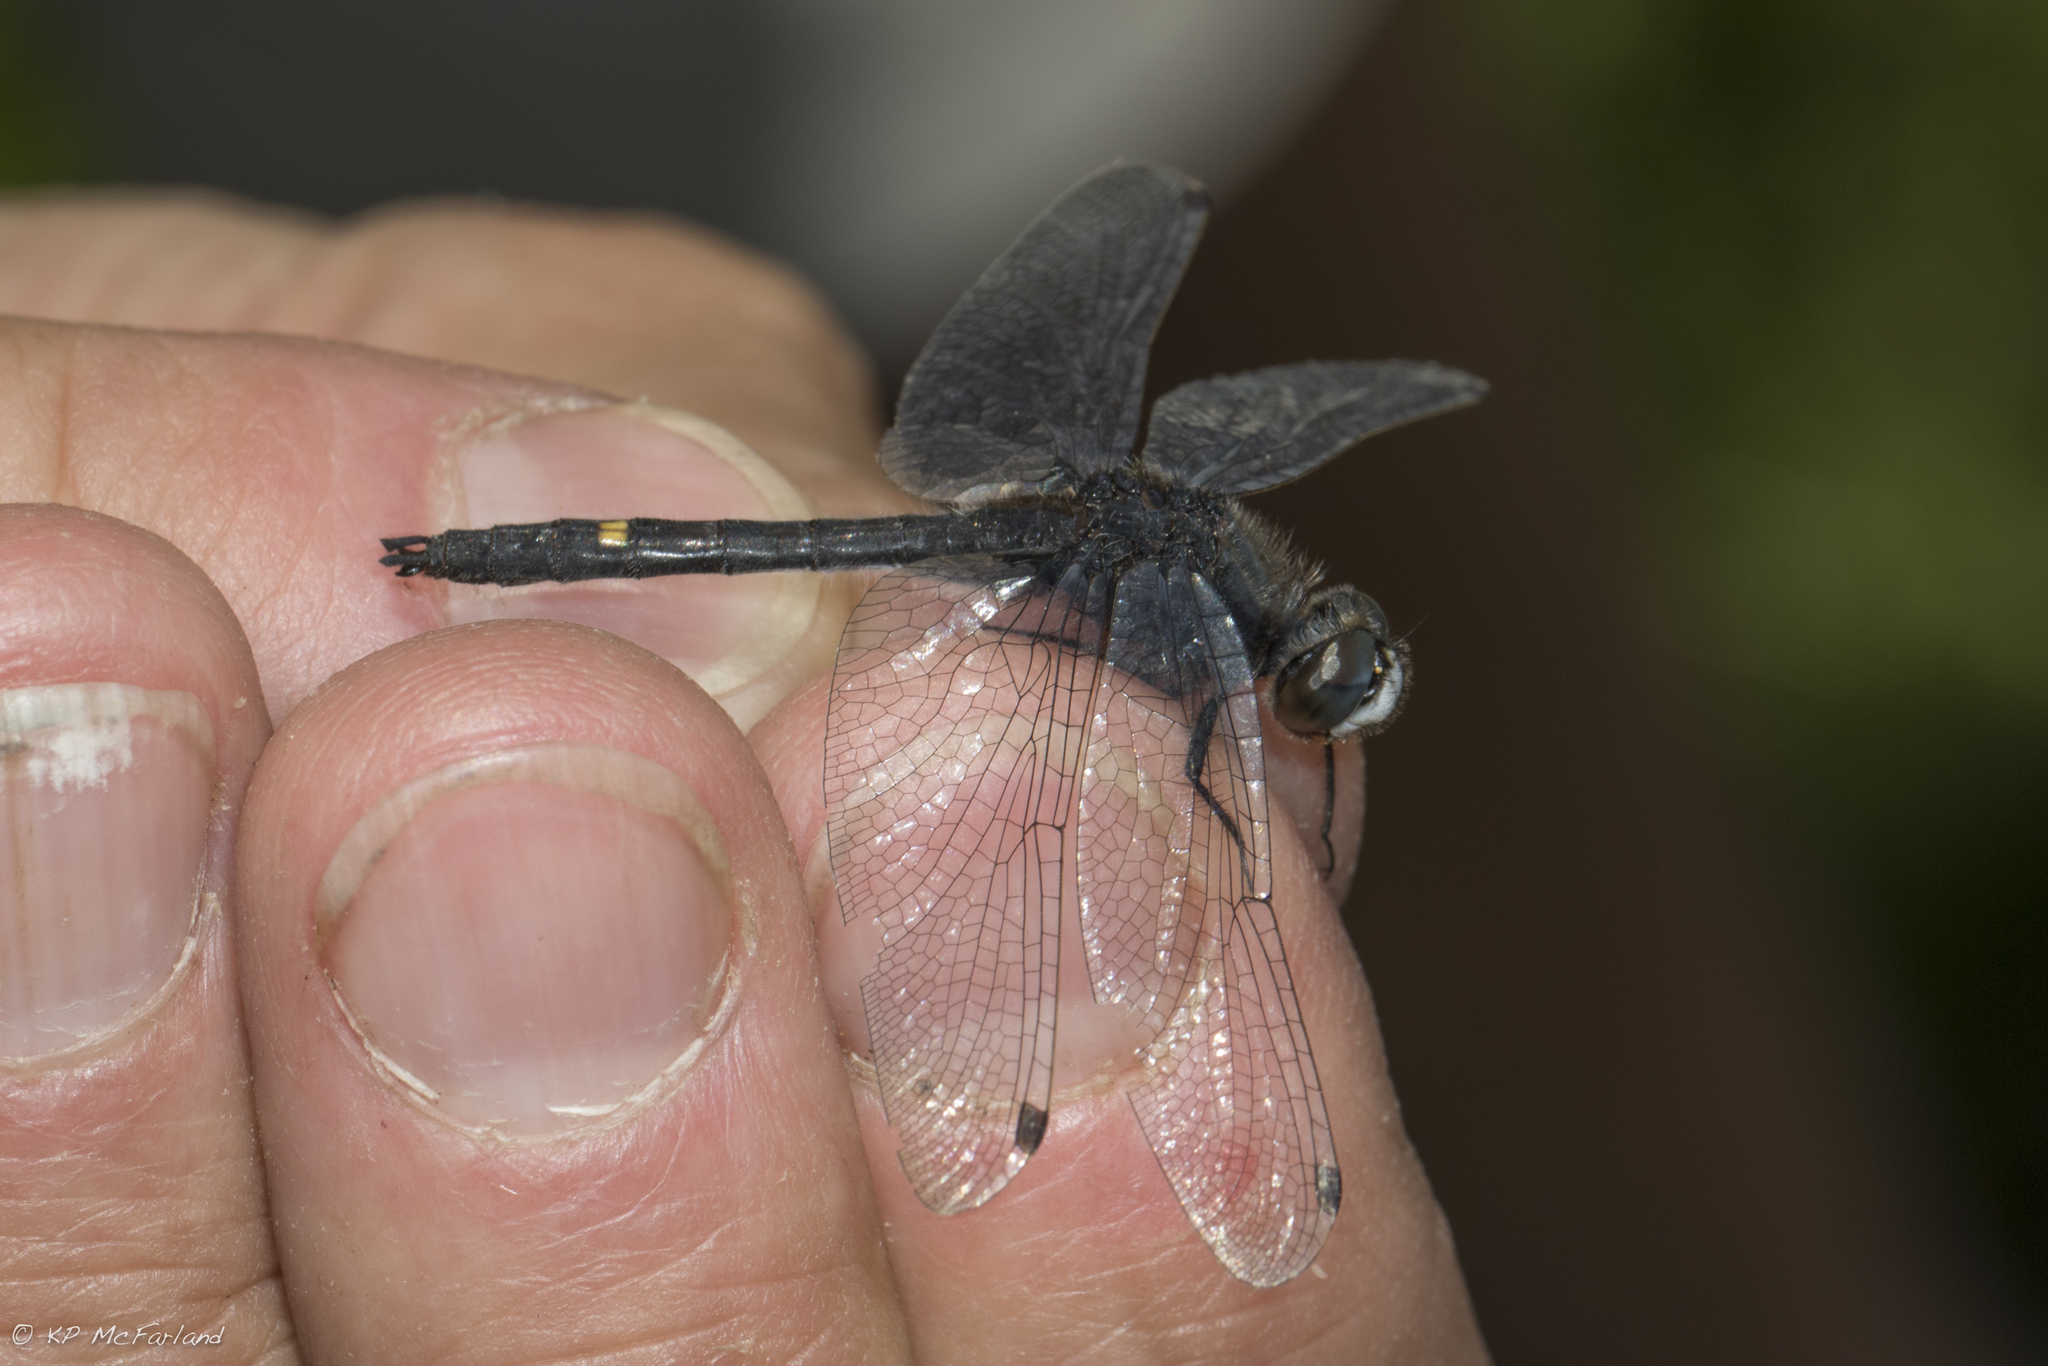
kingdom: Animalia
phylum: Arthropoda
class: Insecta
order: Odonata
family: Libellulidae
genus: Leucorrhinia
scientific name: Leucorrhinia intacta
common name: Dot-tailed whiteface
